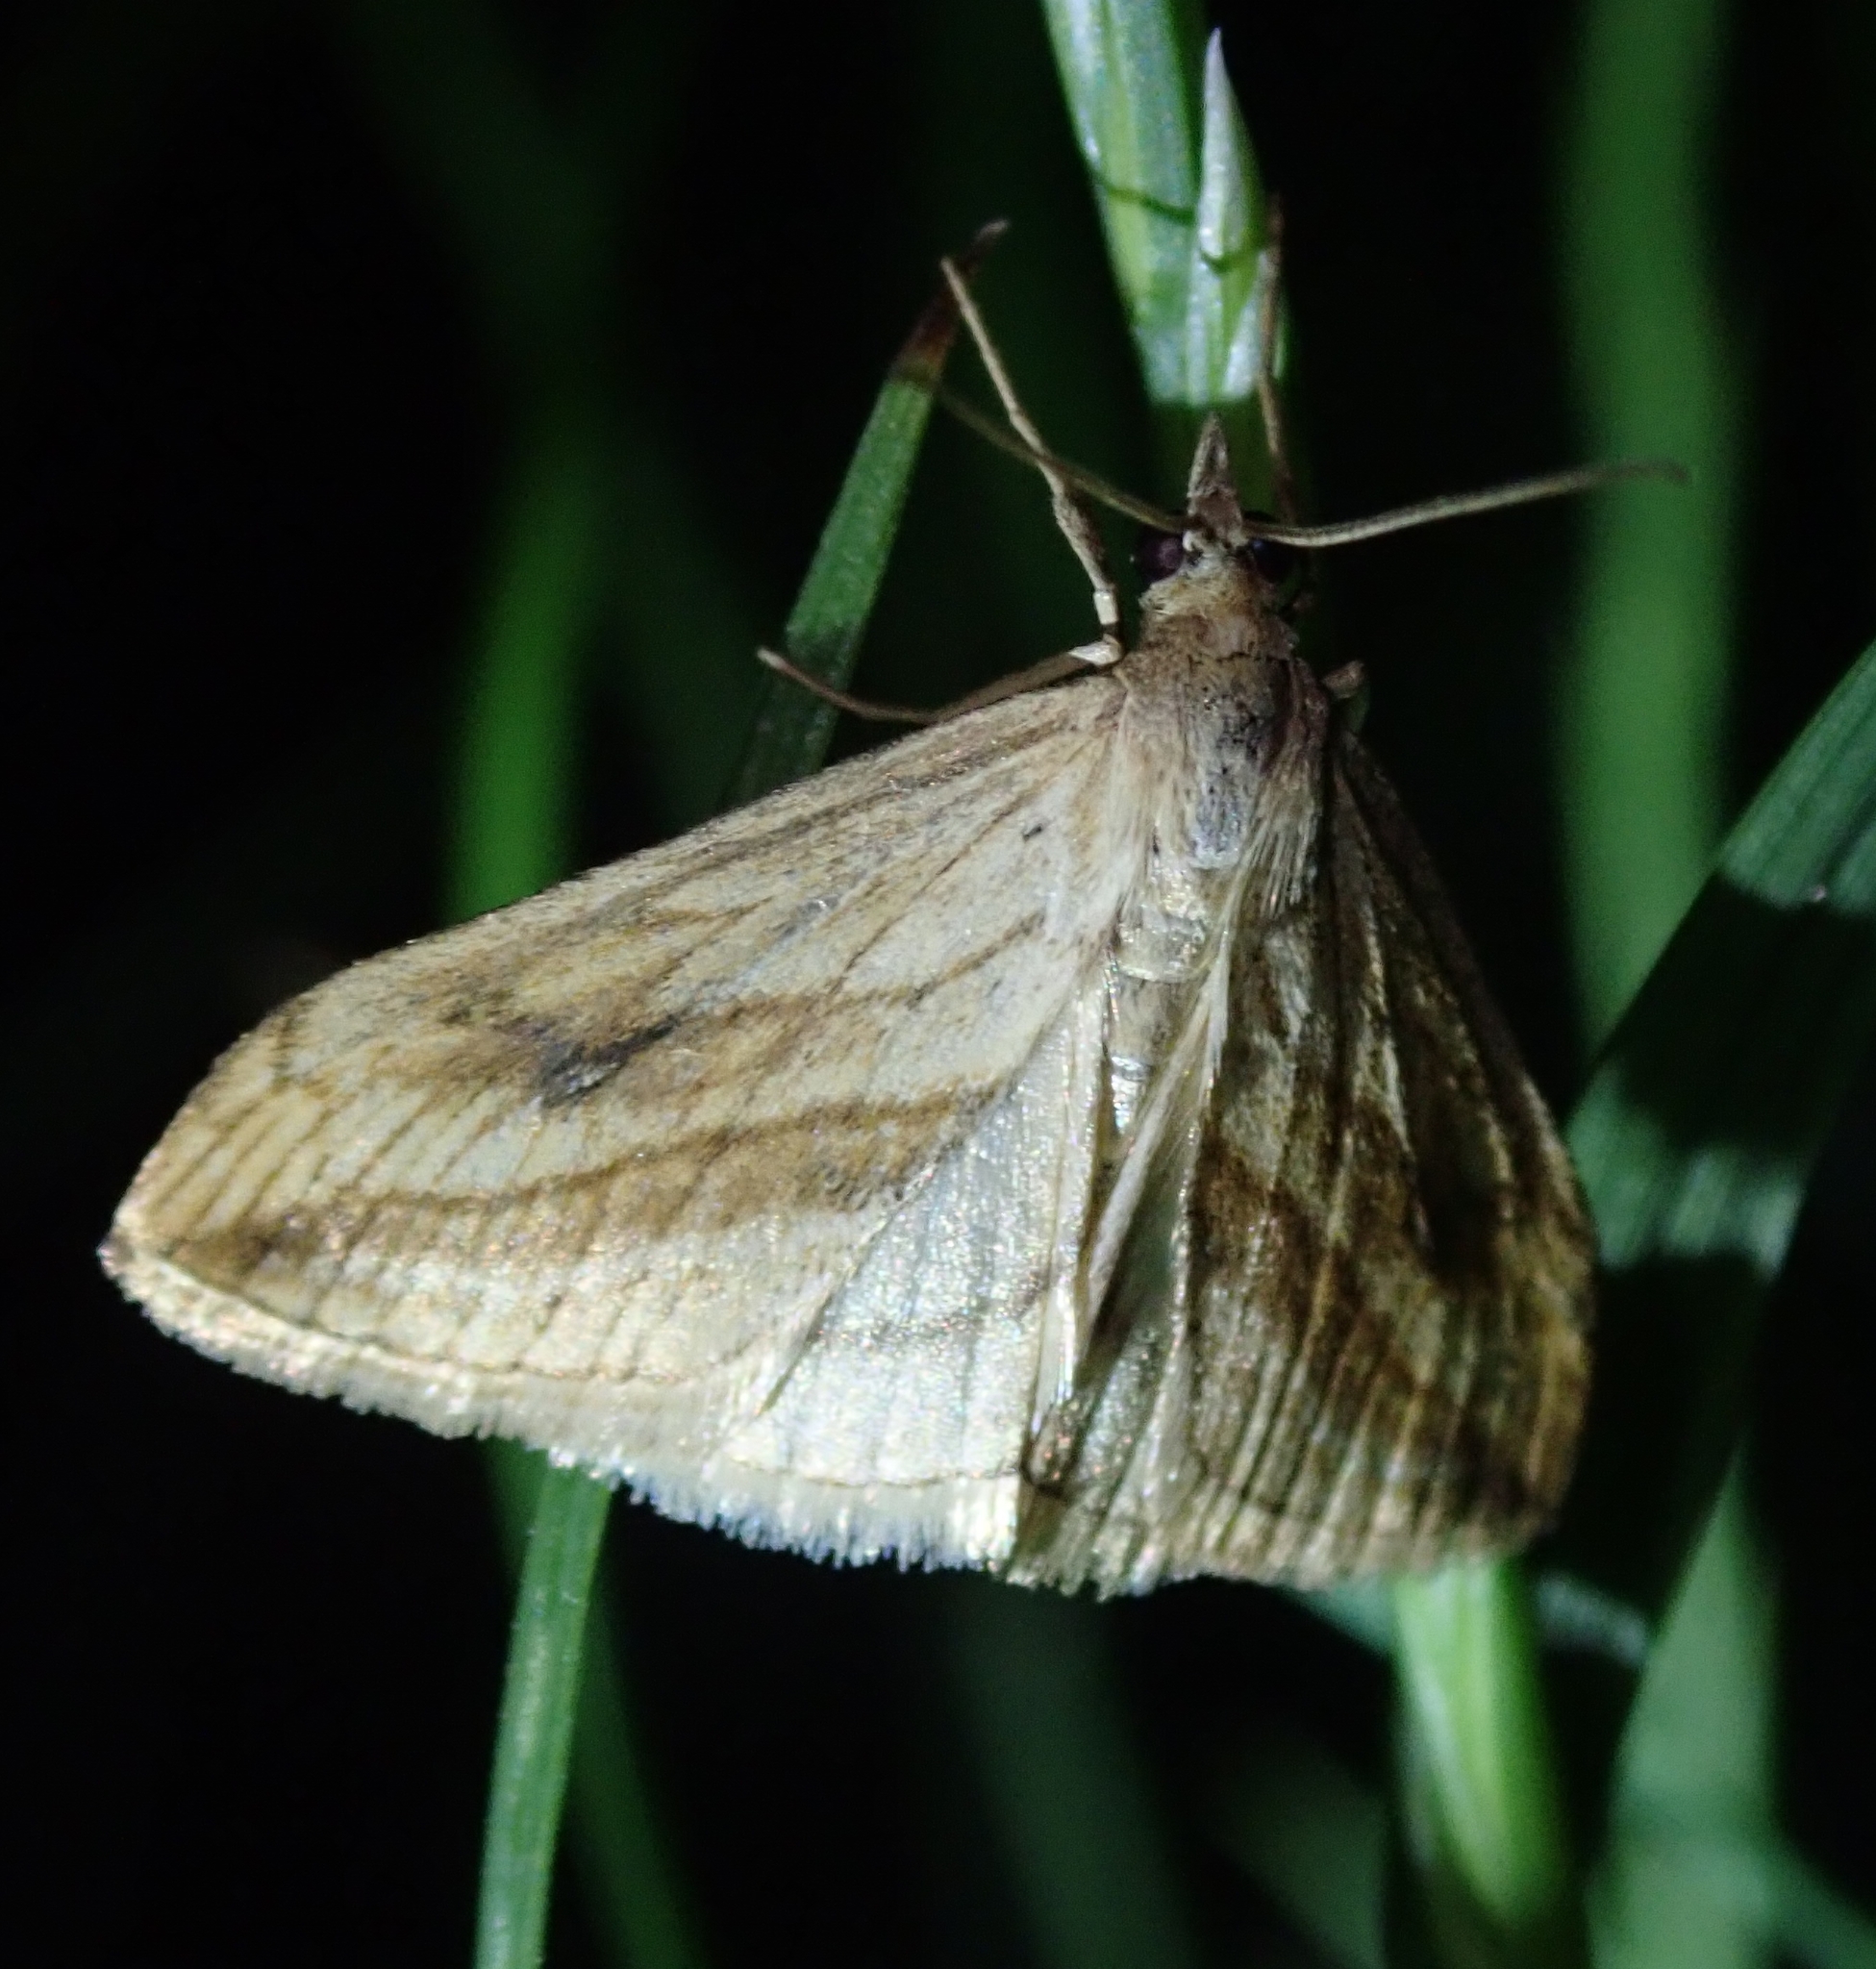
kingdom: Animalia
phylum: Arthropoda
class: Insecta
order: Lepidoptera
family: Crambidae
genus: Evergestis
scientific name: Evergestis forficalis
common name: Garden pebble
